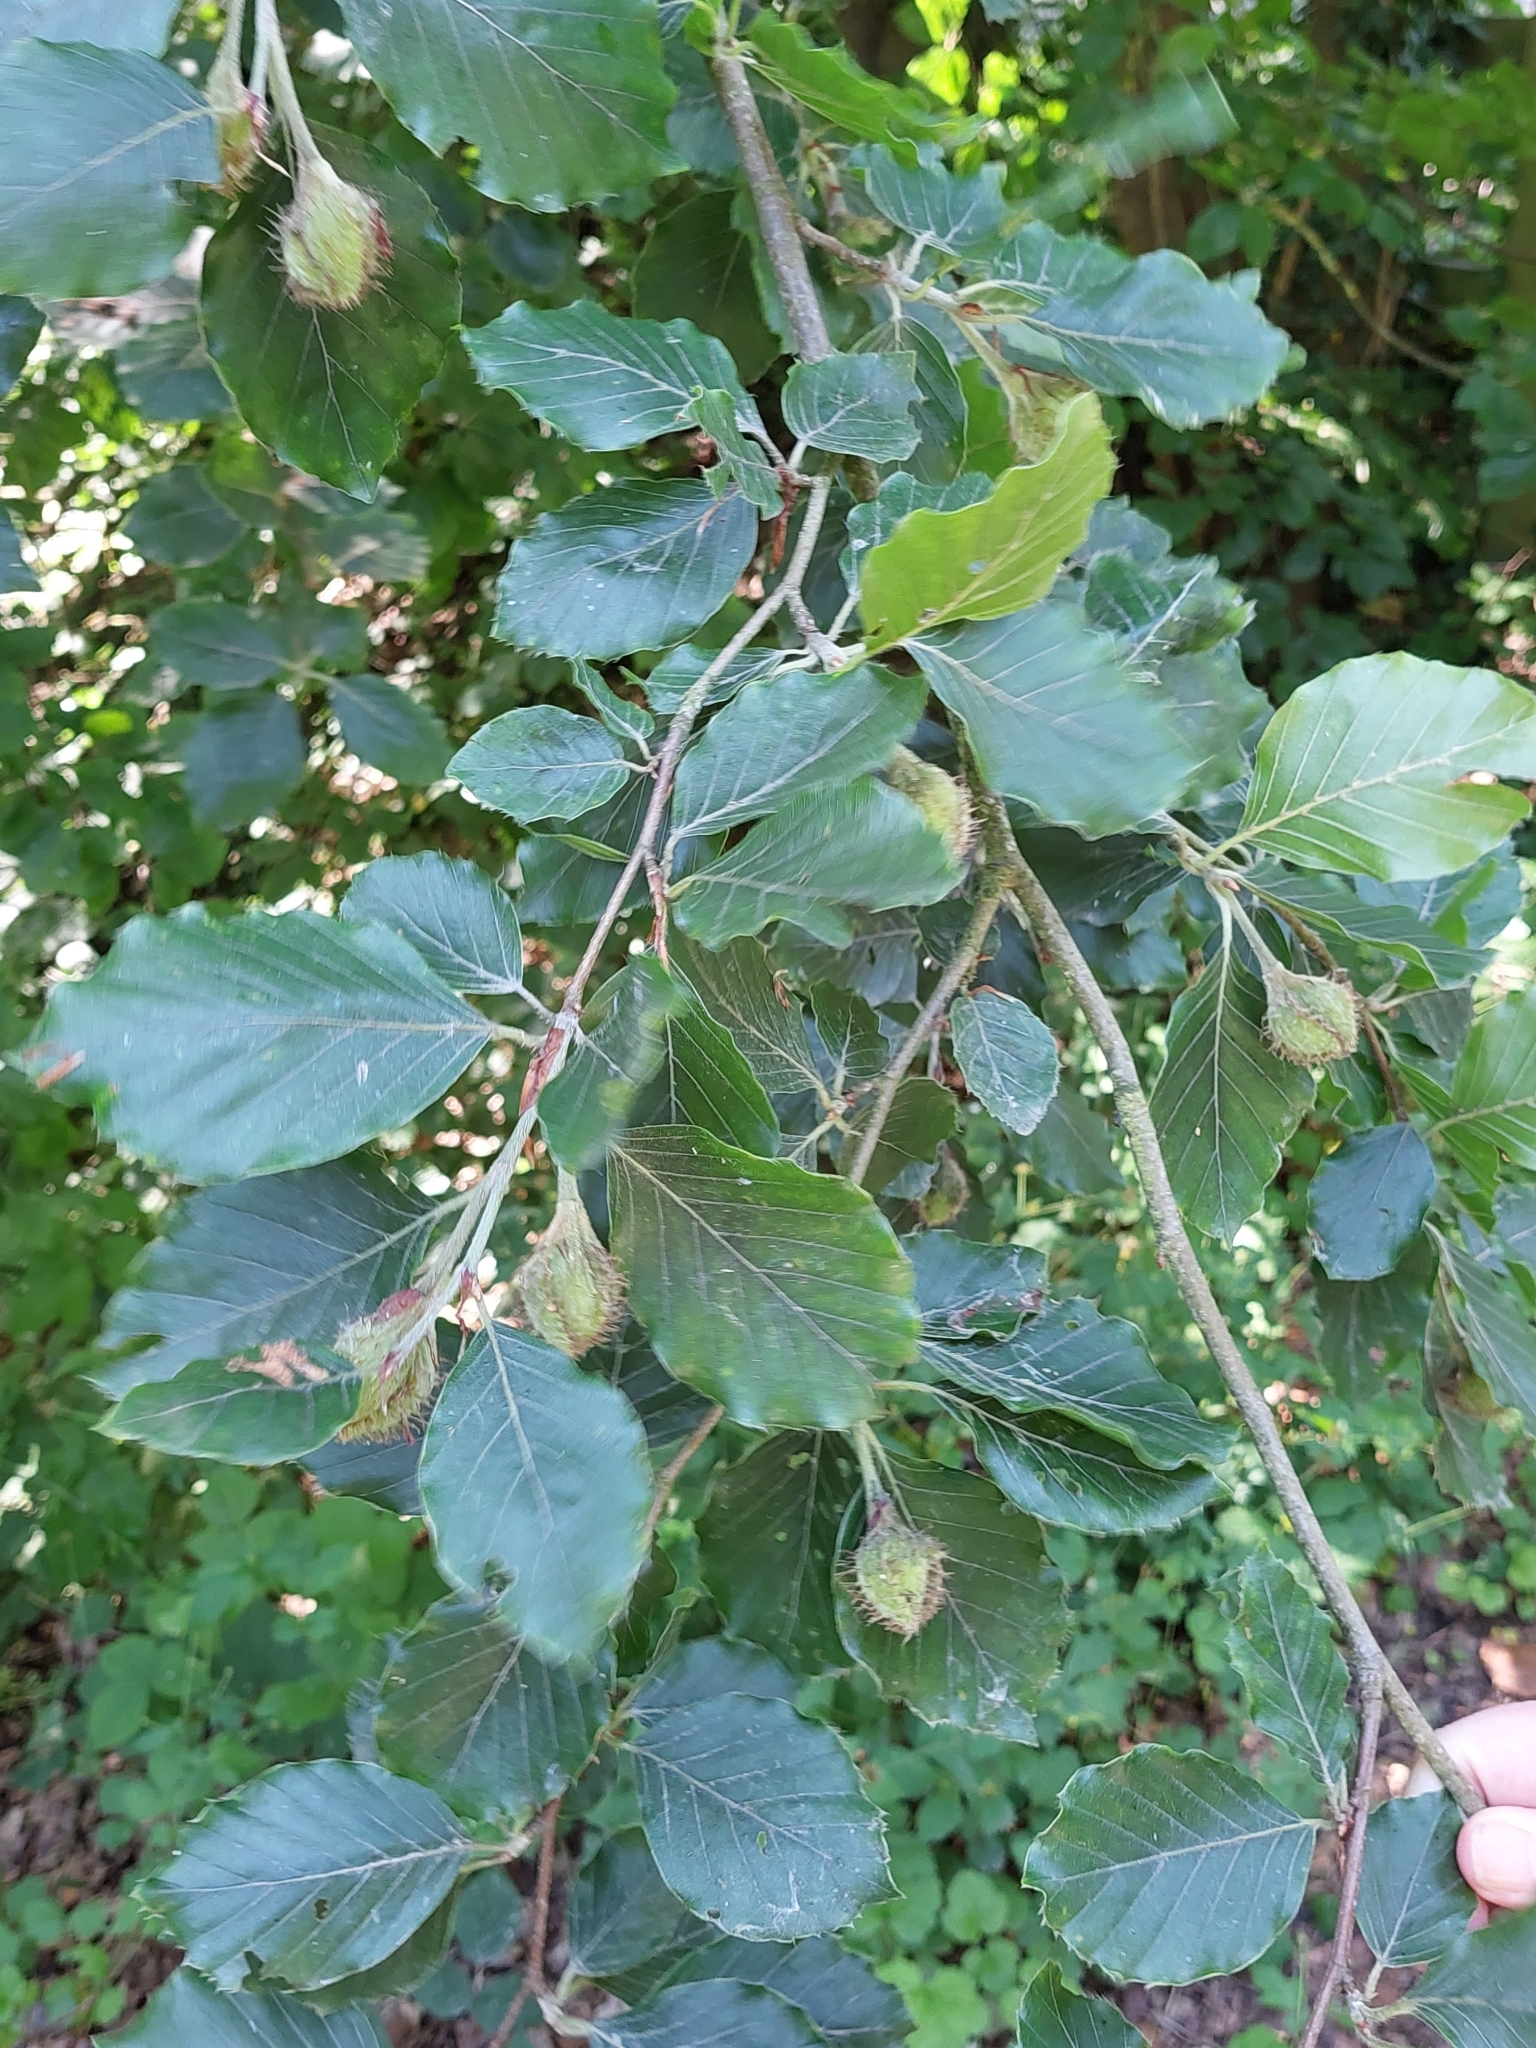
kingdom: Plantae
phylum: Tracheophyta
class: Magnoliopsida
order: Fagales
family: Fagaceae
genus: Fagus
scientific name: Fagus sylvatica
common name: Beech
